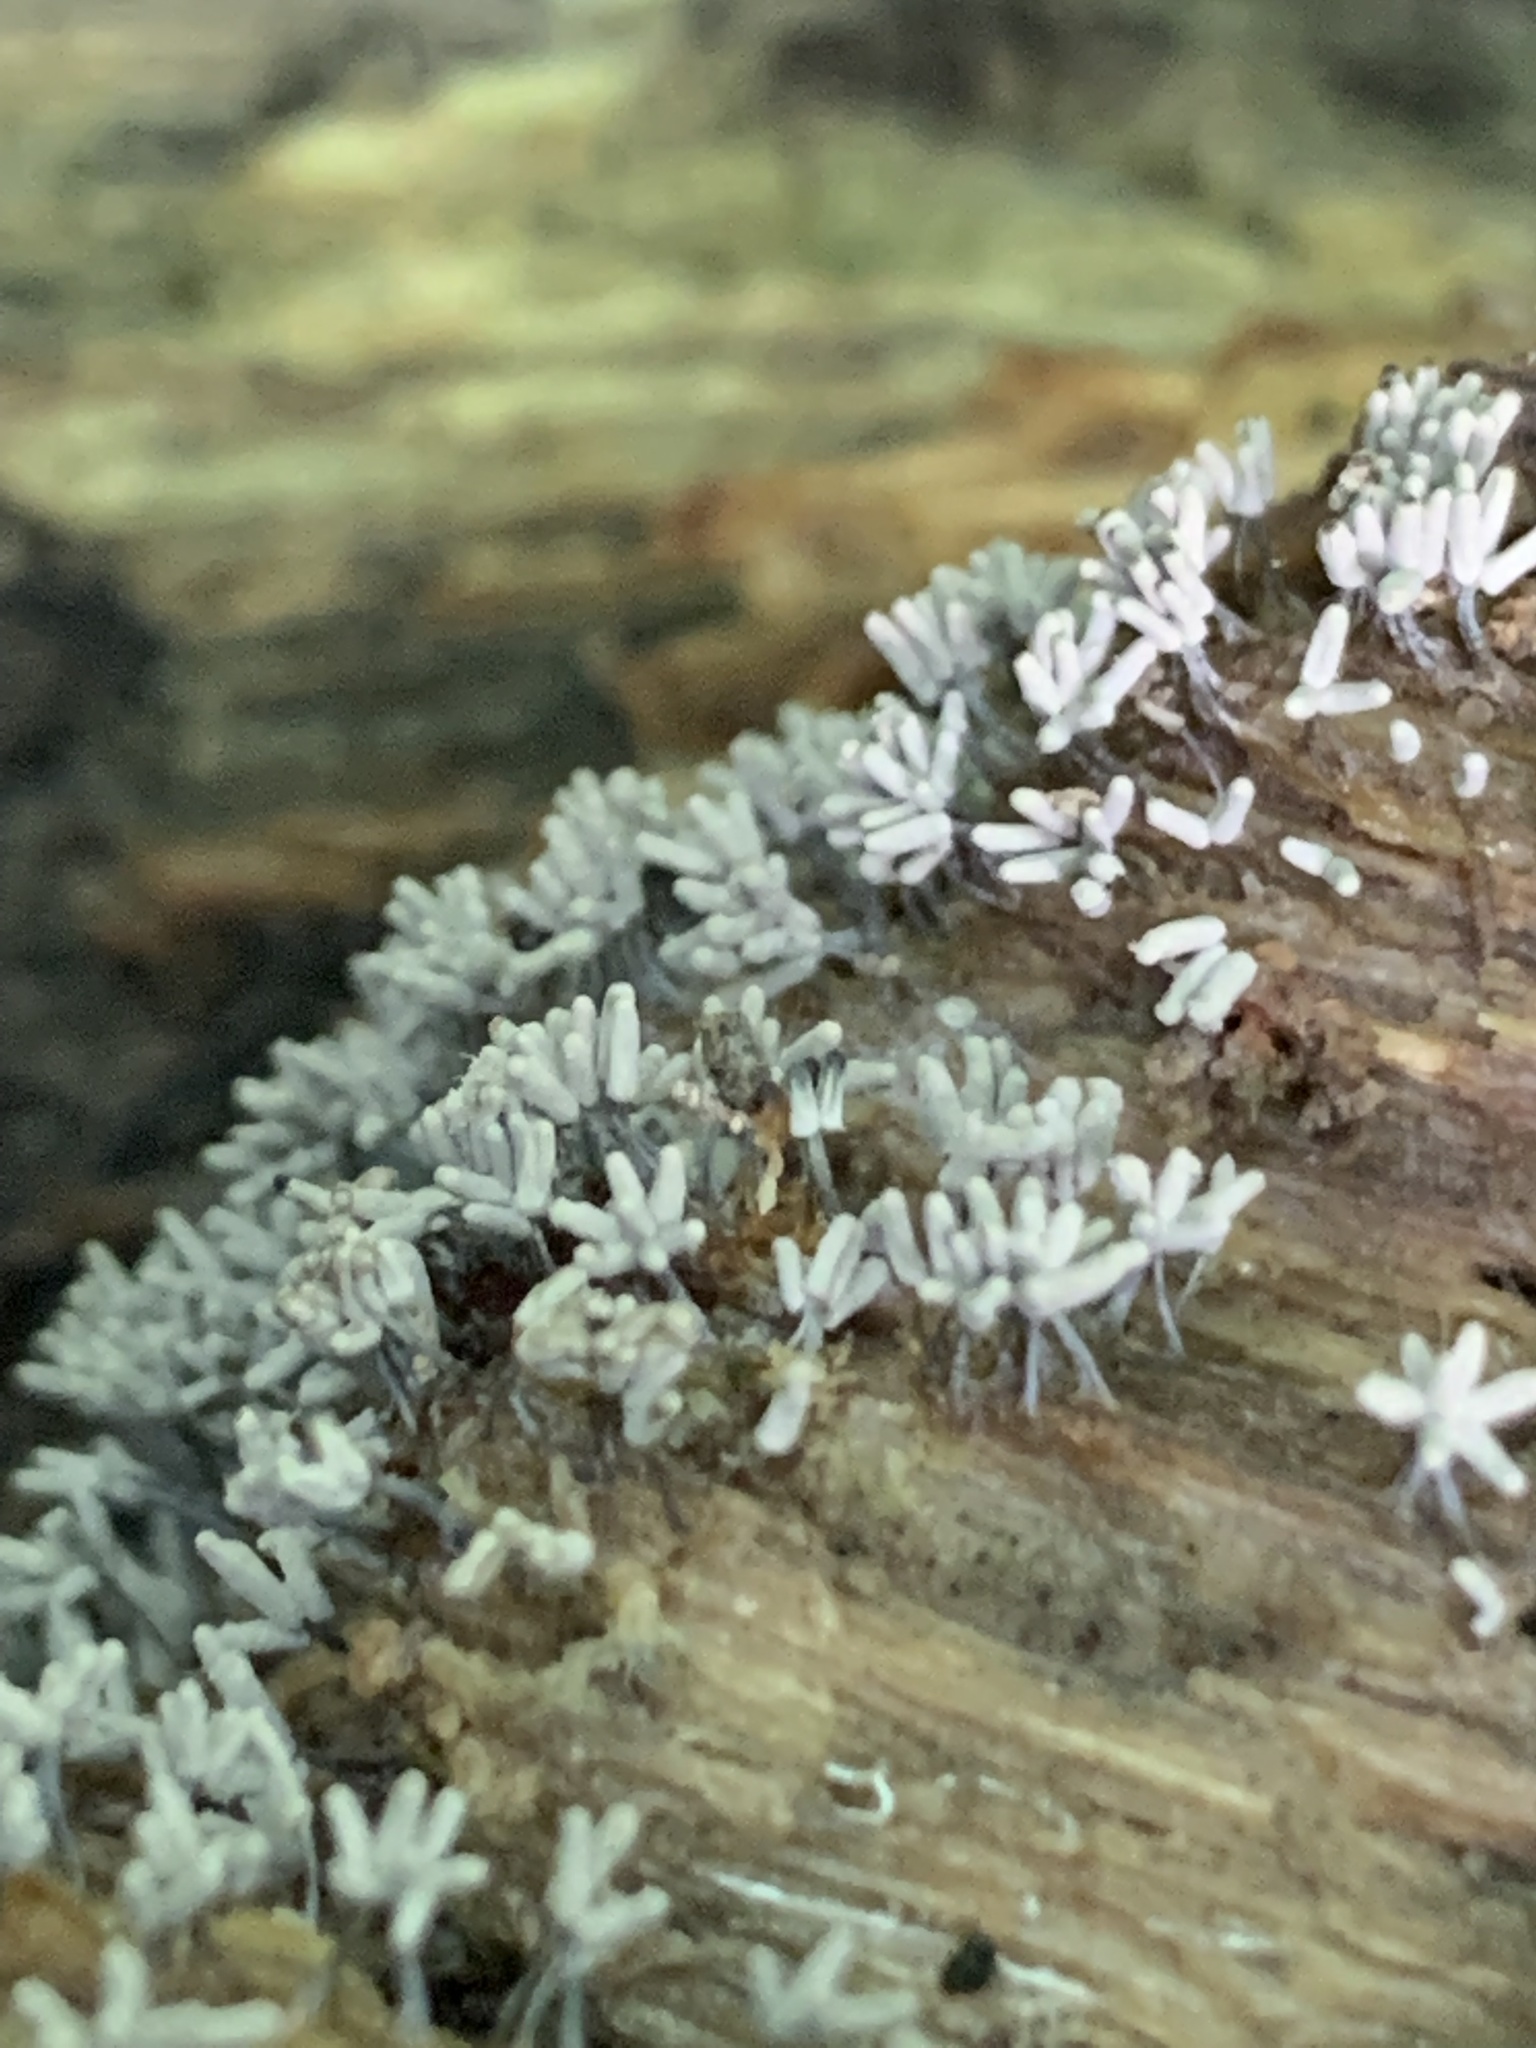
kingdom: Protozoa
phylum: Mycetozoa
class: Myxomycetes
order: Trichiales
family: Arcyriaceae
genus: Arcyria
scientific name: Arcyria cinerea
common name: White carnival candy slime mold
